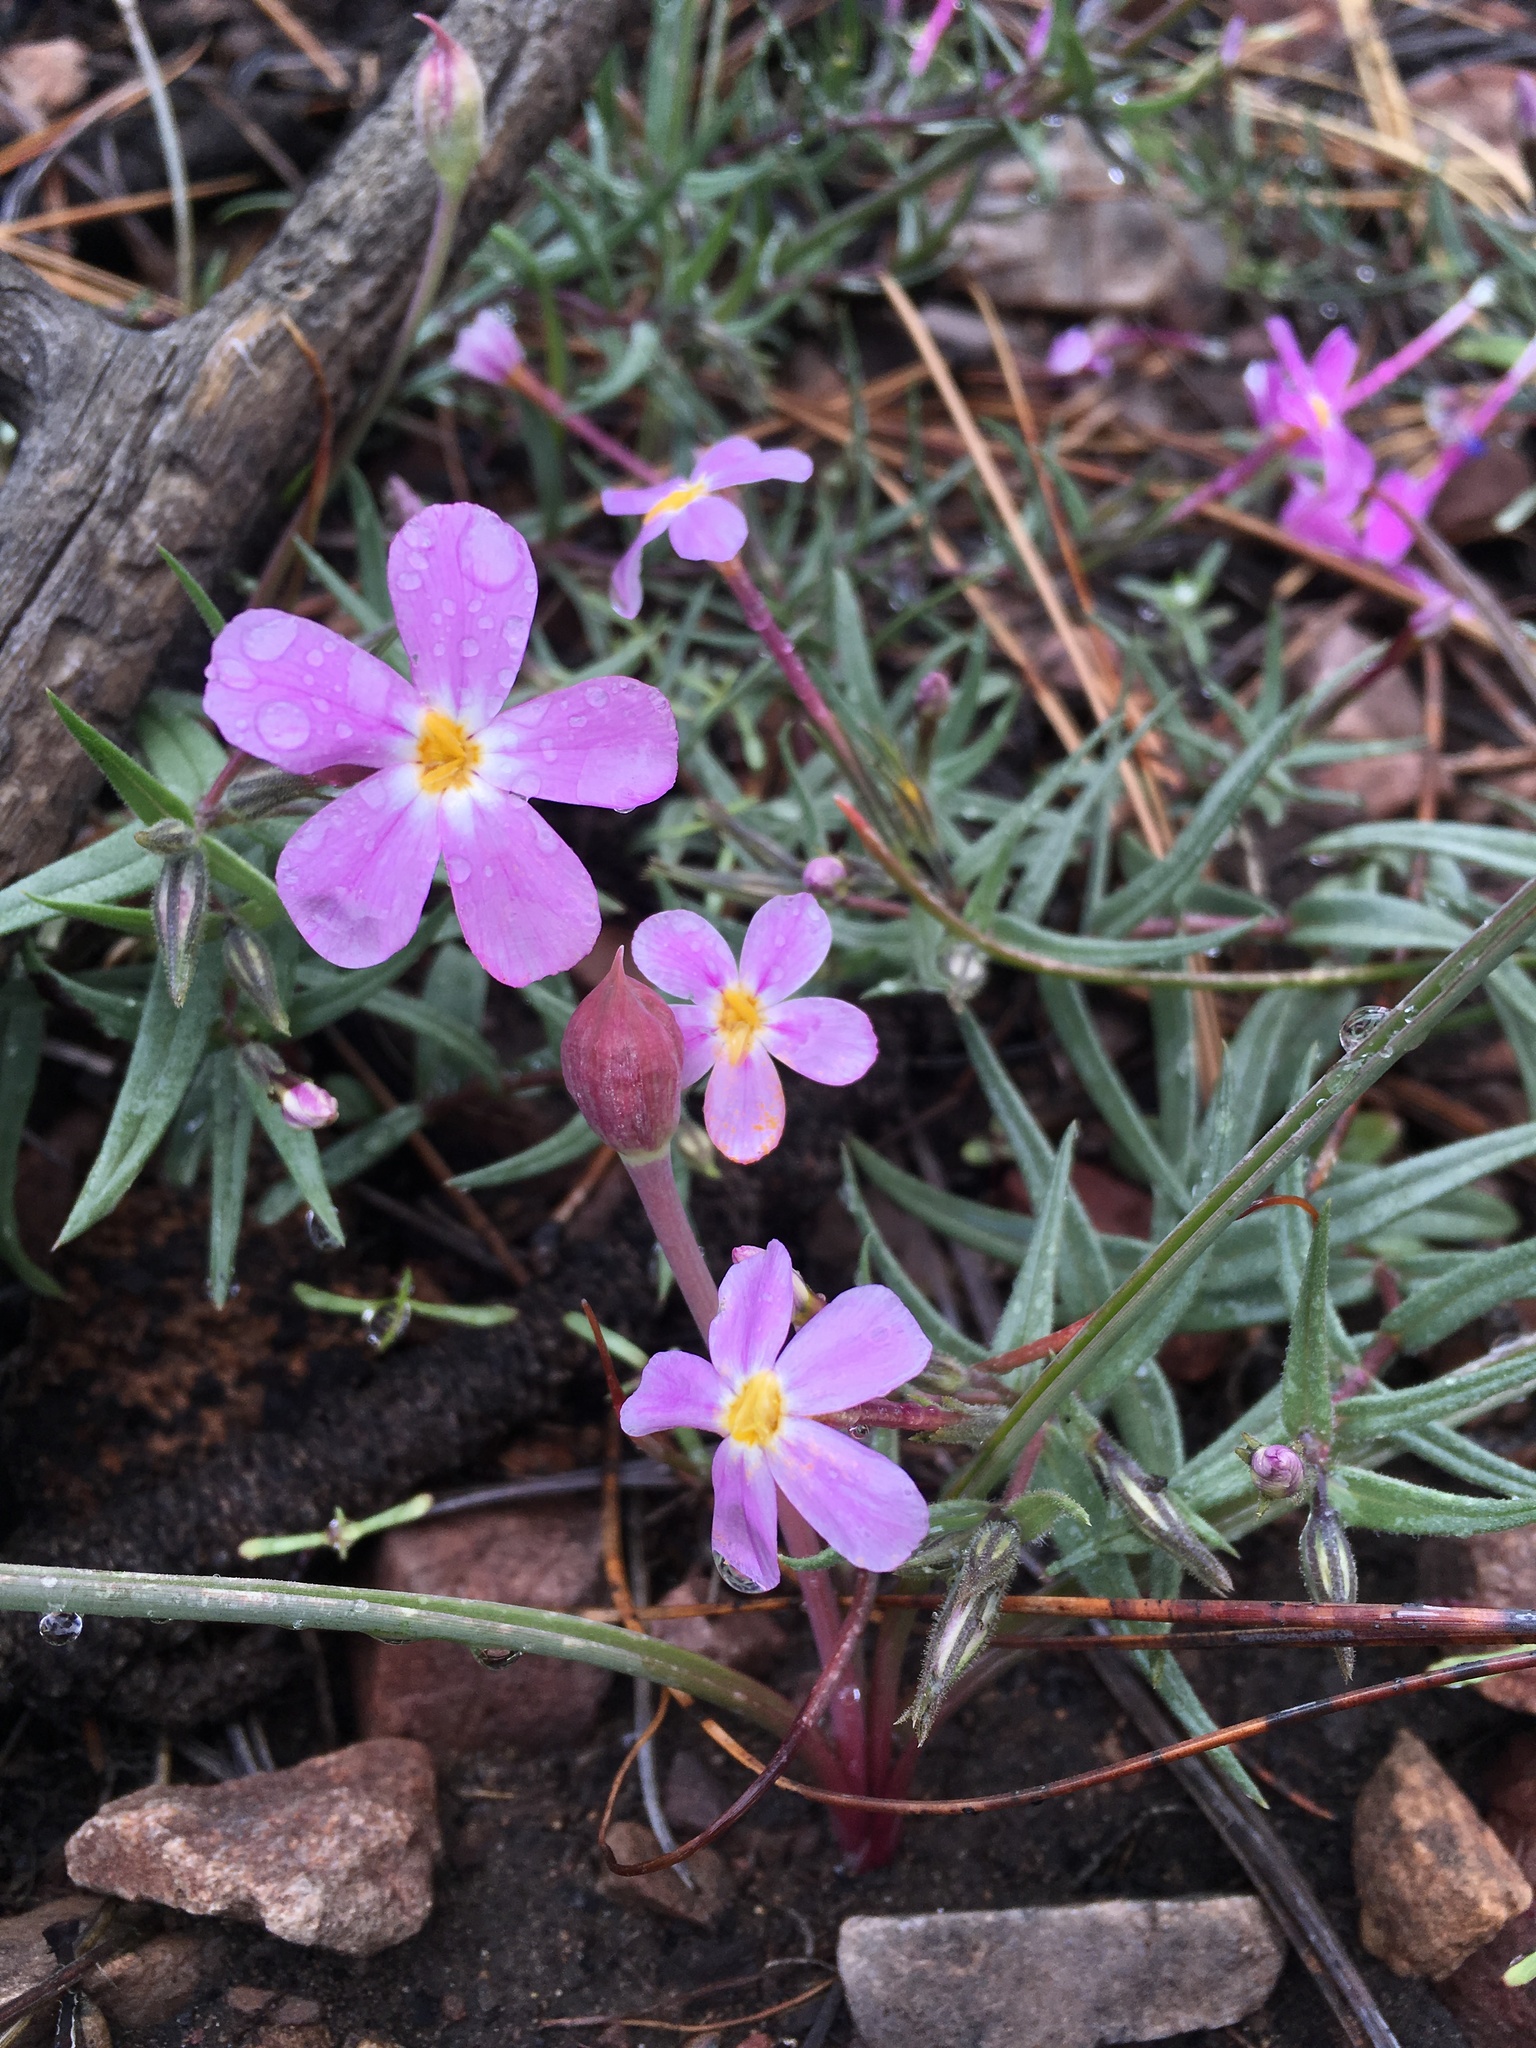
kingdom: Plantae
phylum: Tracheophyta
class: Magnoliopsida
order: Ericales
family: Polemoniaceae
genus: Phlox
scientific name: Phlox dolichantha
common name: Bear valley phlox
